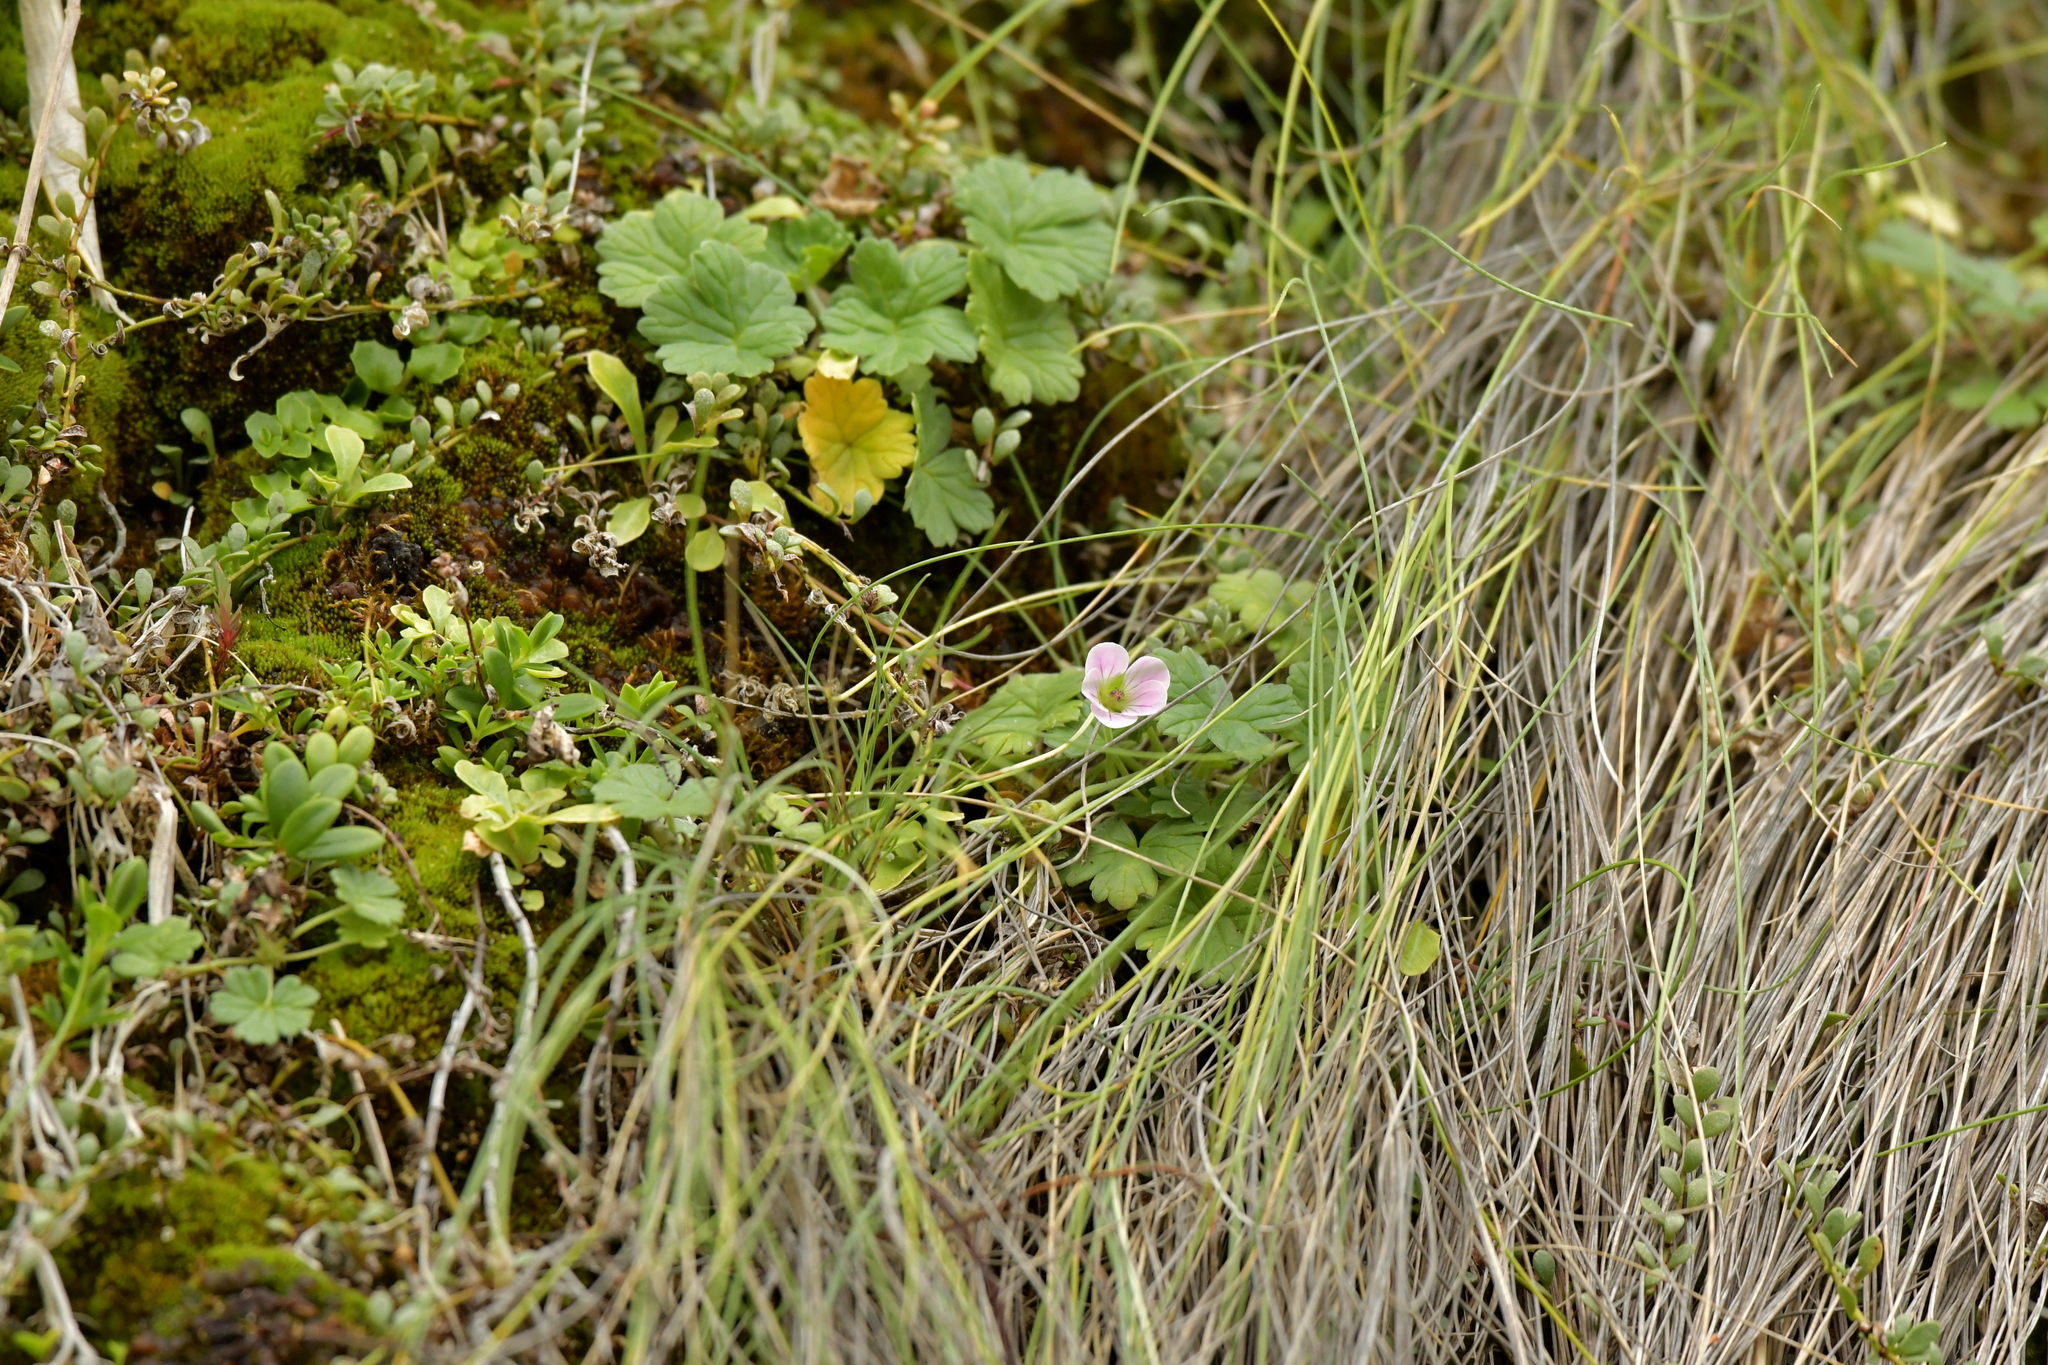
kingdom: Plantae
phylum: Tracheophyta
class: Magnoliopsida
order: Geraniales
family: Geraniaceae
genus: Geranium
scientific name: Geranium traversii
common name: Cranesbill
